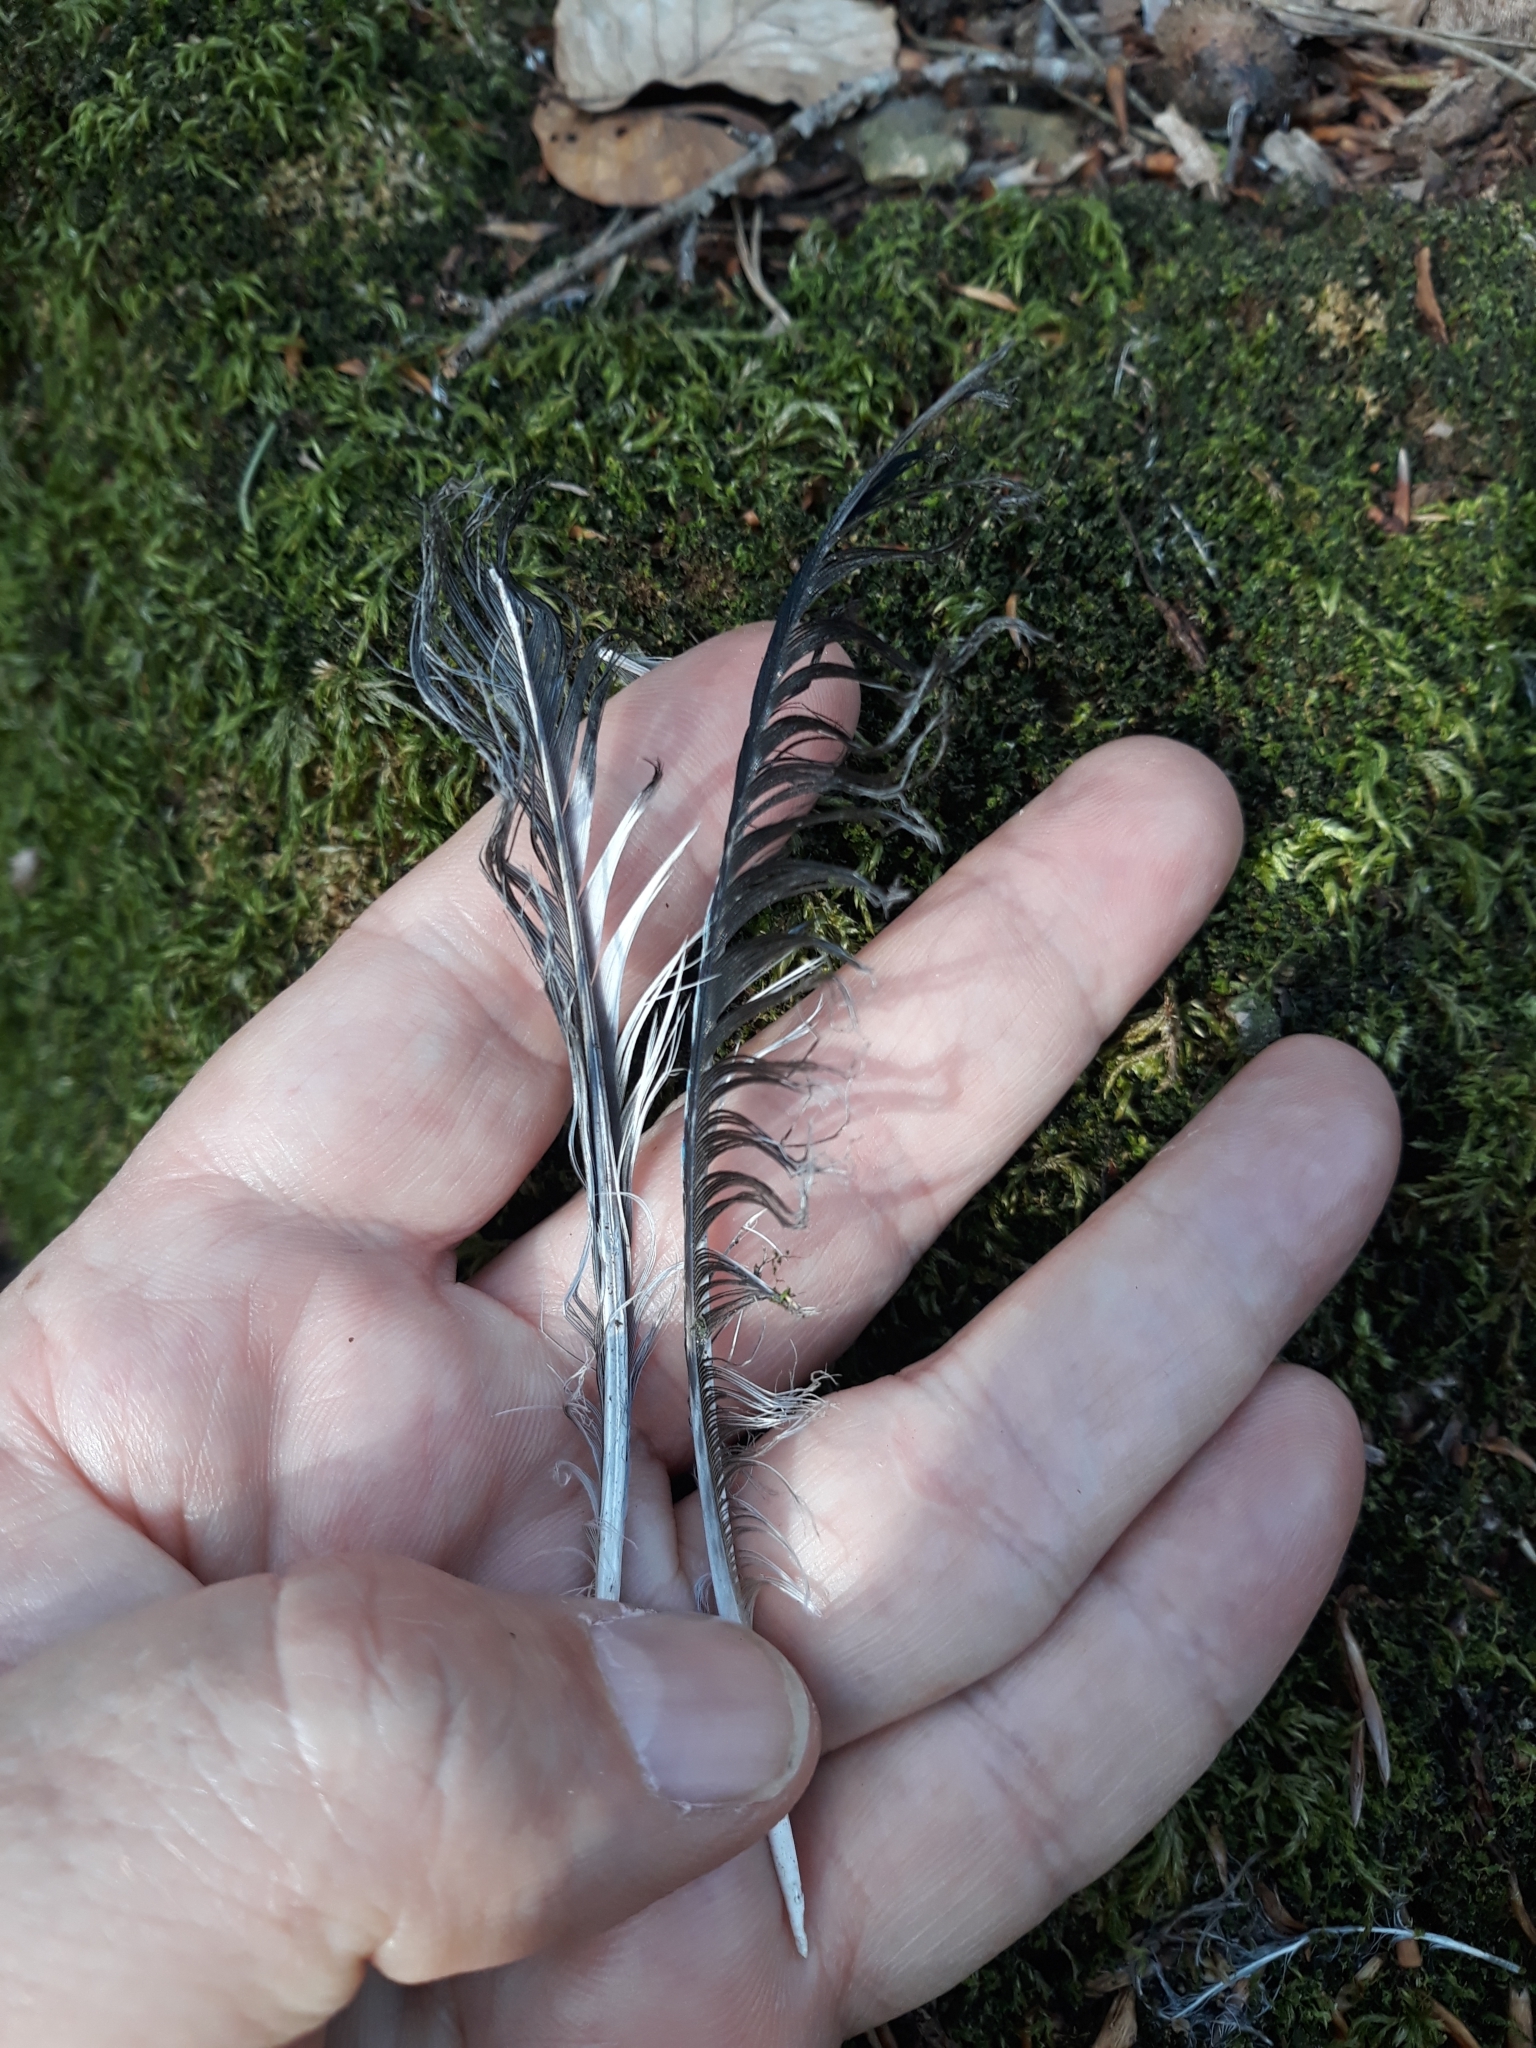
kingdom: Animalia
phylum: Chordata
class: Aves
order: Passeriformes
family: Corvidae
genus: Garrulus
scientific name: Garrulus glandarius
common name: Eurasian jay
